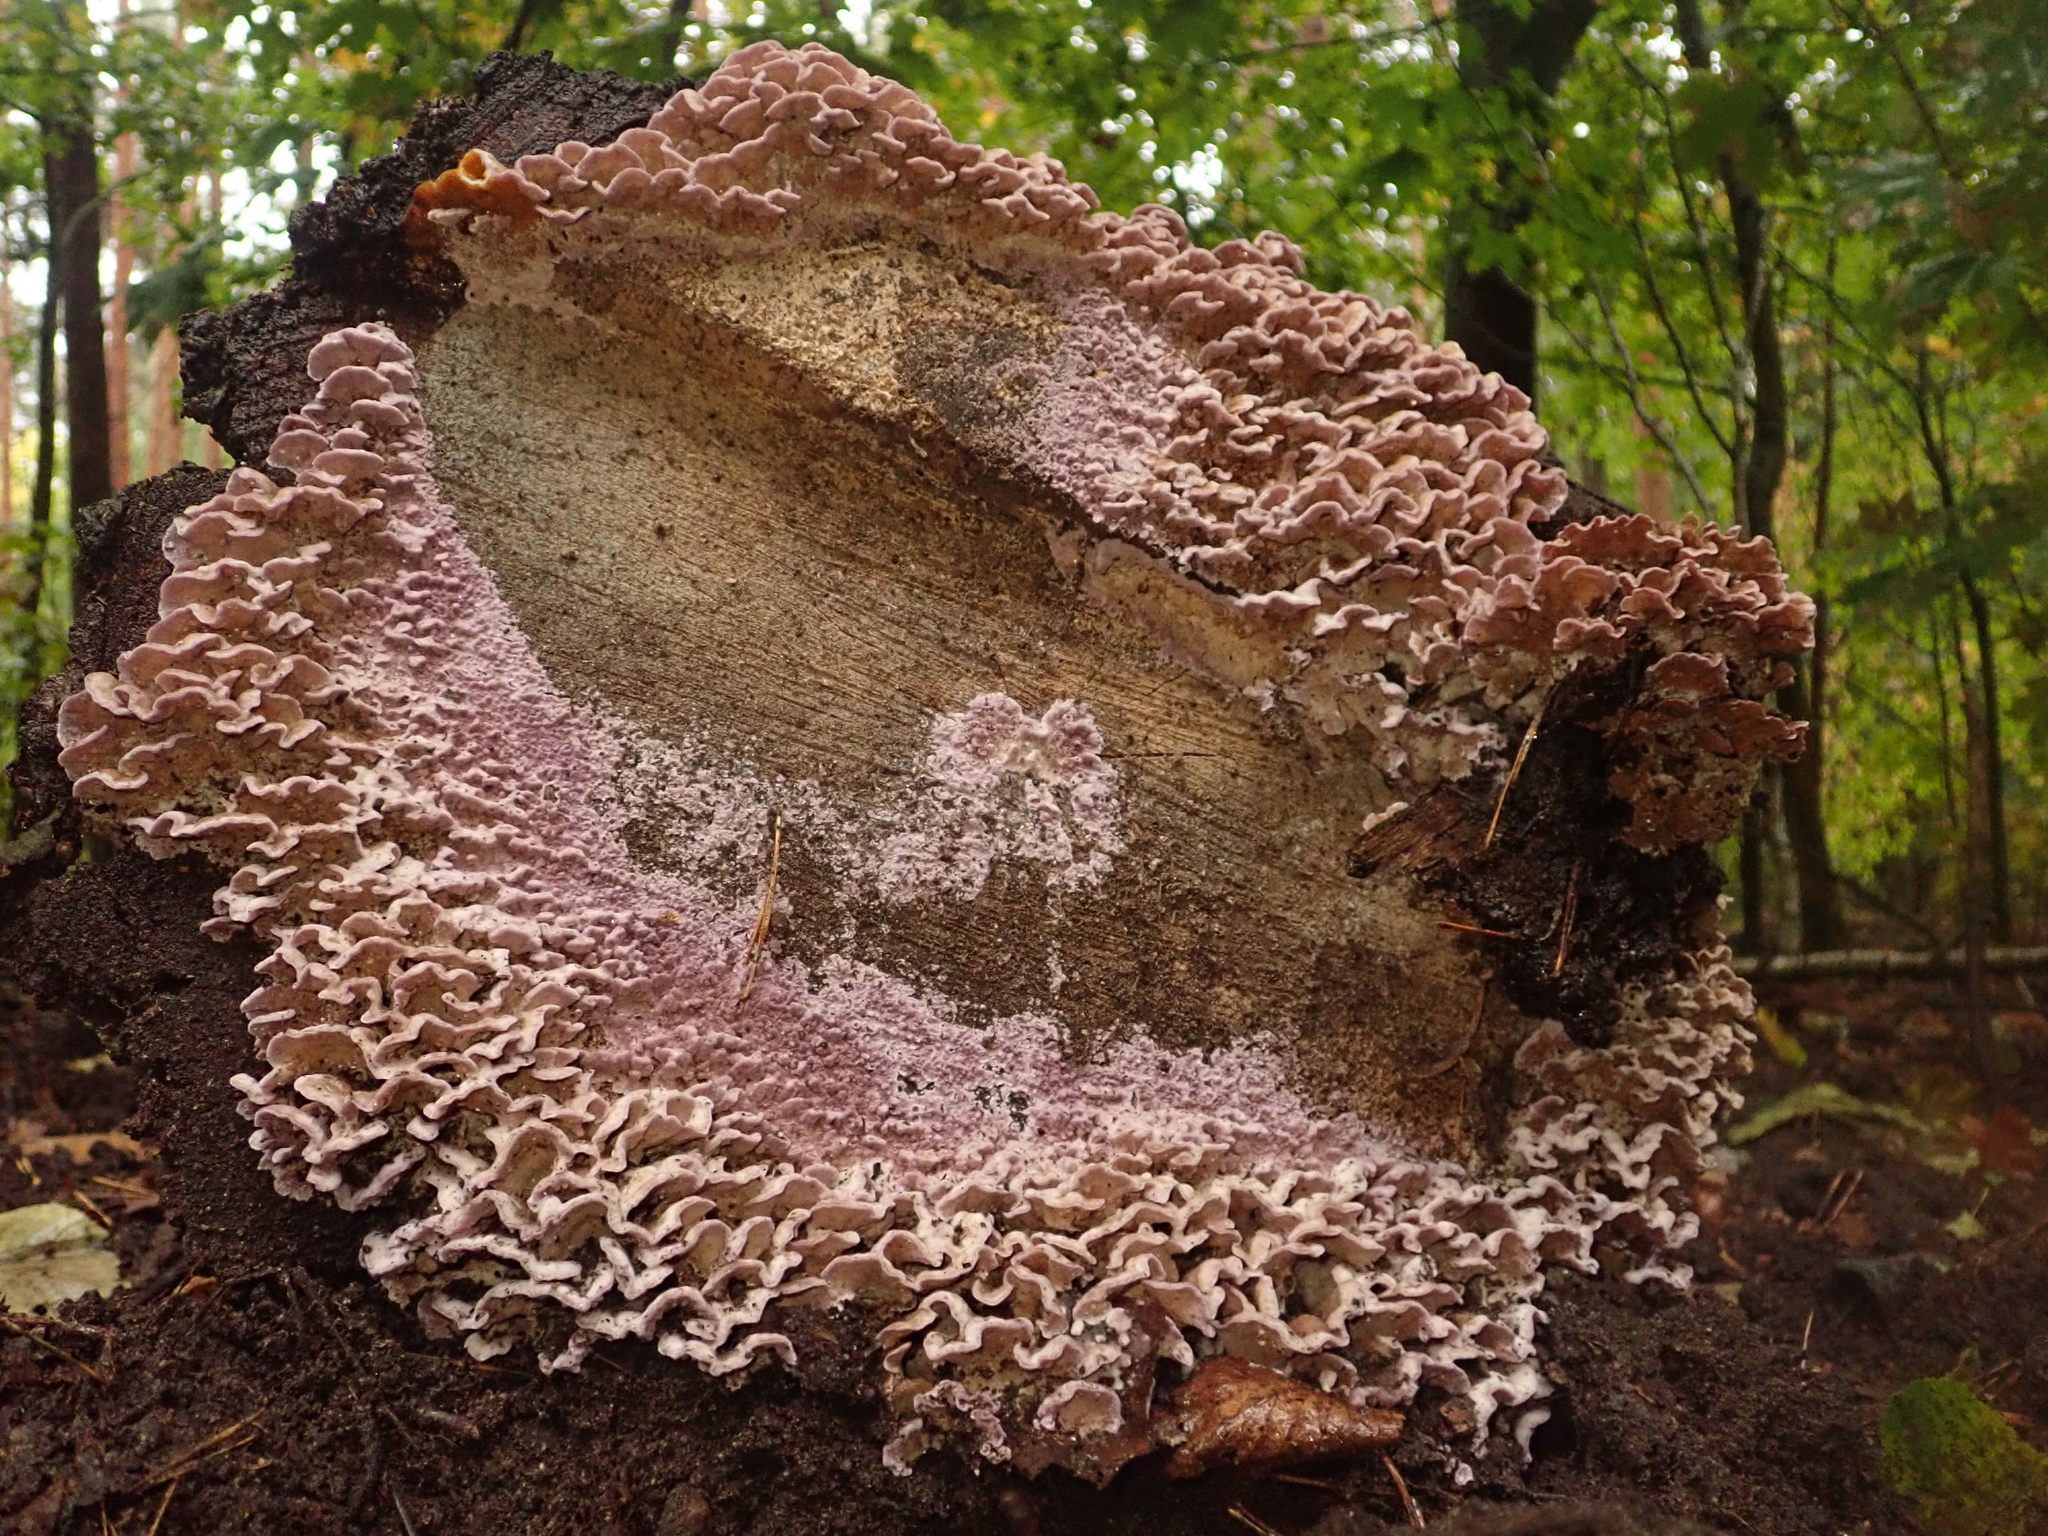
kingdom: Fungi
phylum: Basidiomycota
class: Agaricomycetes
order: Agaricales
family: Cyphellaceae
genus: Chondrostereum
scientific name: Chondrostereum purpureum
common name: Silver leaf disease
